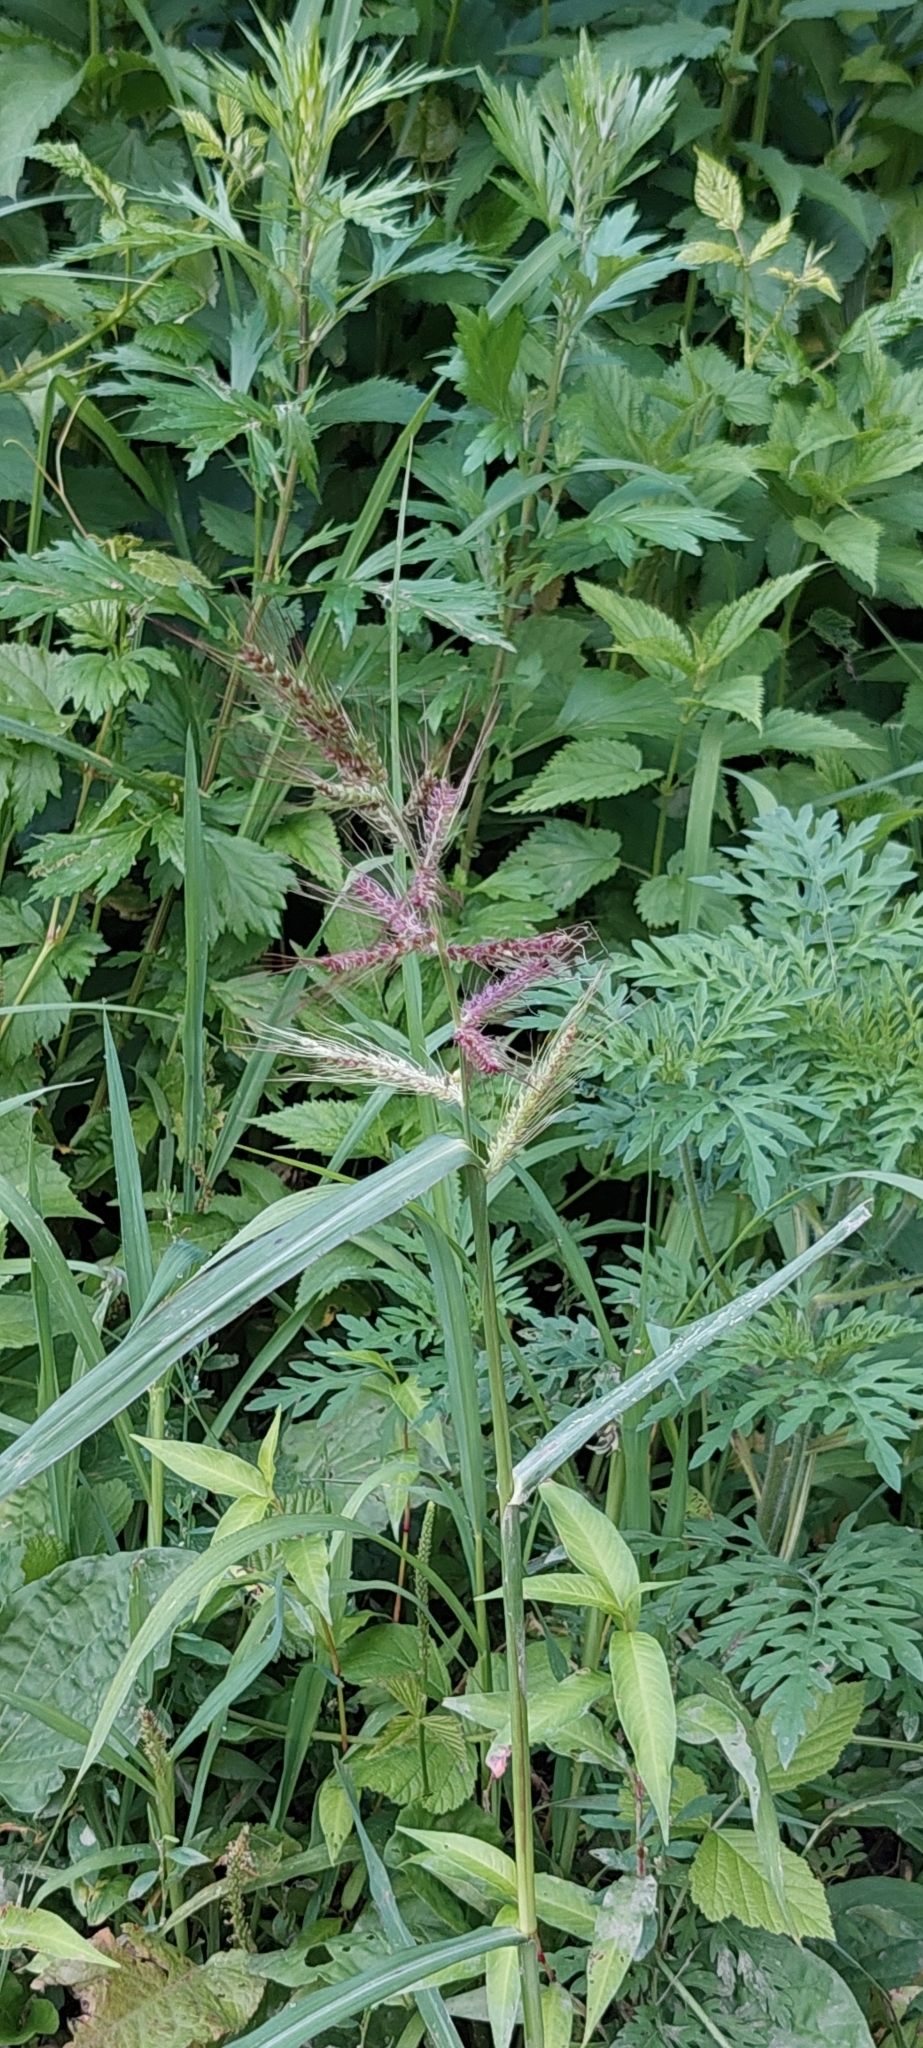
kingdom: Plantae
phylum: Tracheophyta
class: Liliopsida
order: Poales
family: Poaceae
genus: Echinochloa
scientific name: Echinochloa crus-galli
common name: Cockspur
